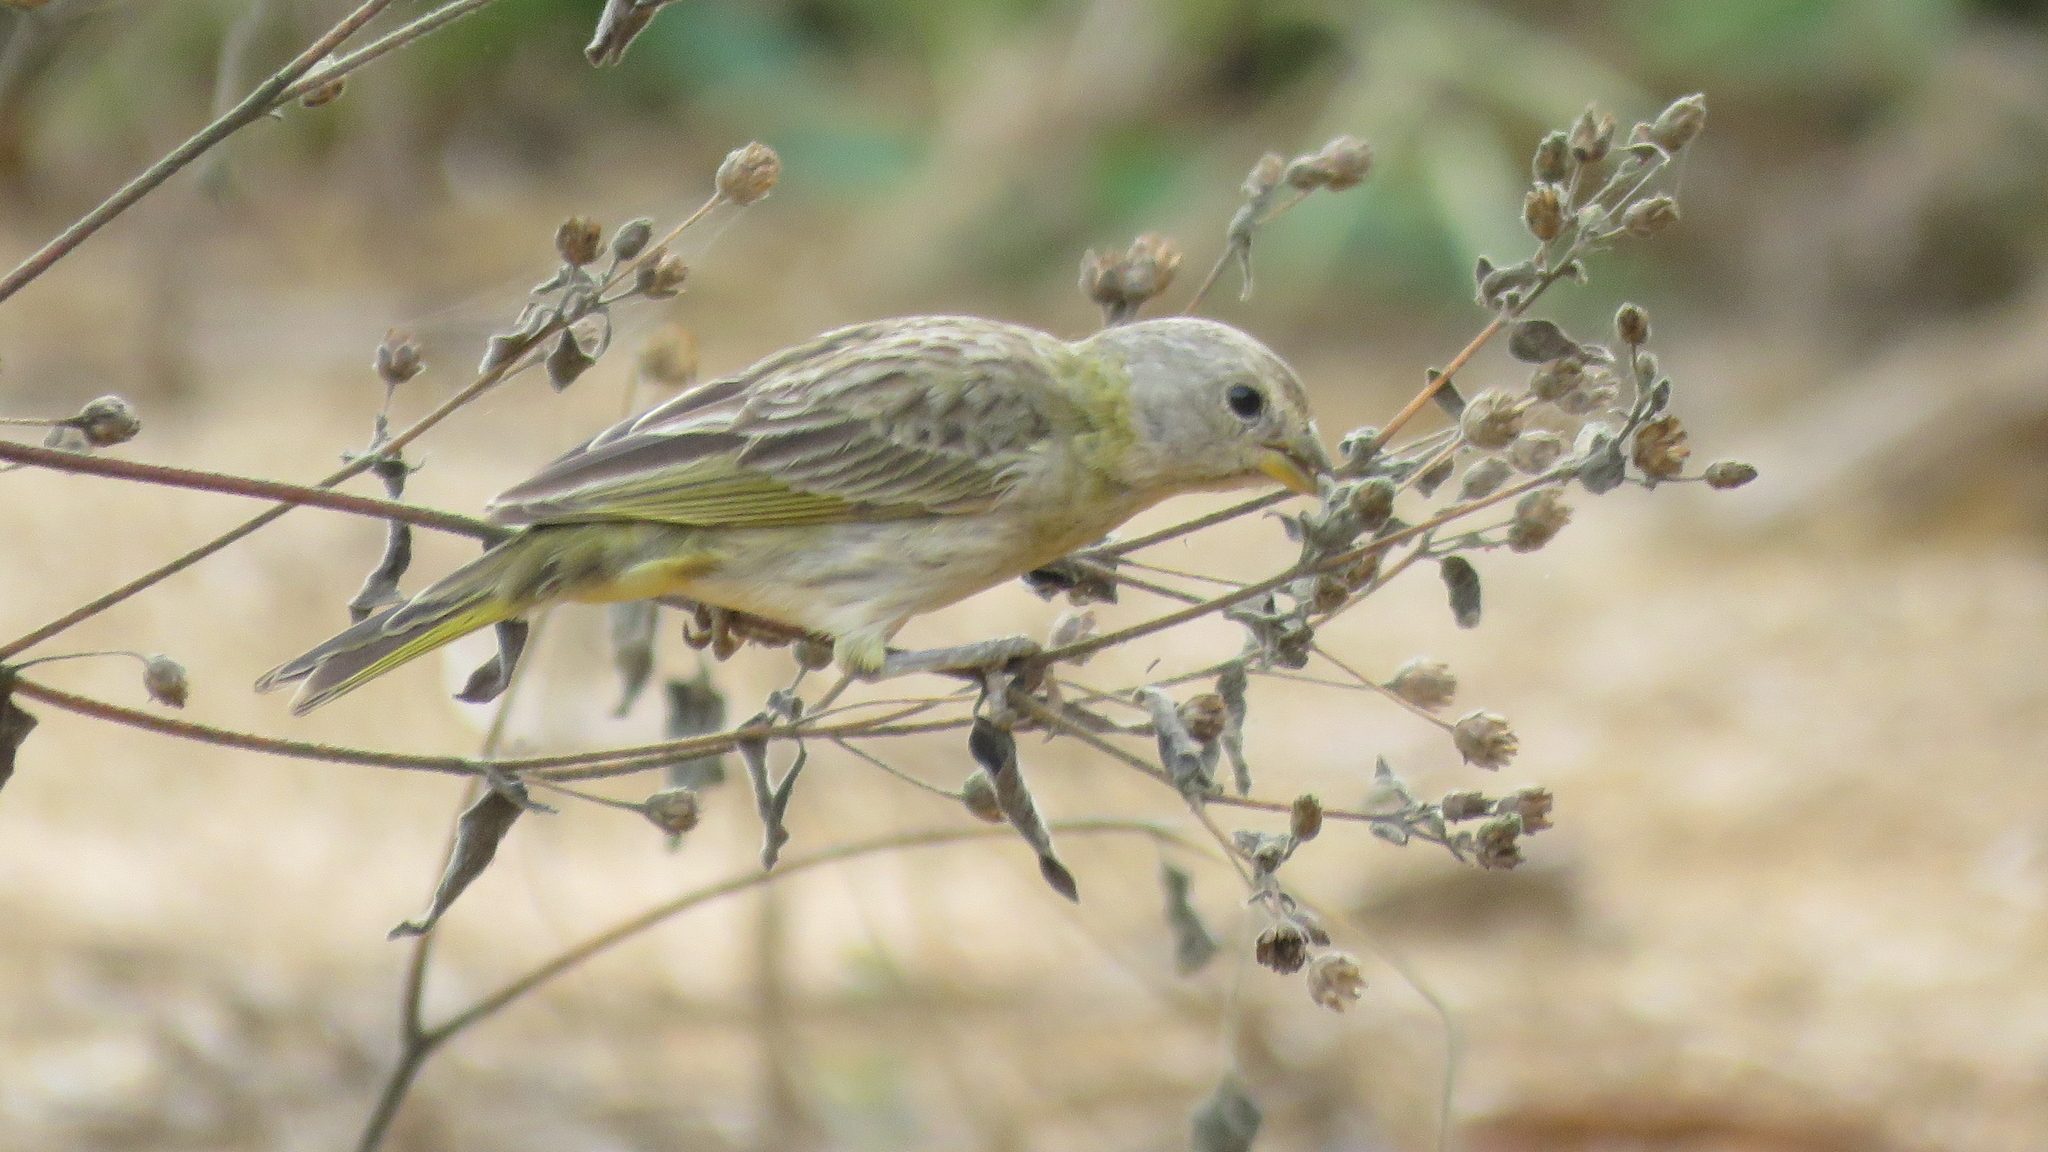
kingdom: Animalia
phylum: Chordata
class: Aves
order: Passeriformes
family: Thraupidae
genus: Sicalis
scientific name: Sicalis flaveola
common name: Saffron finch
